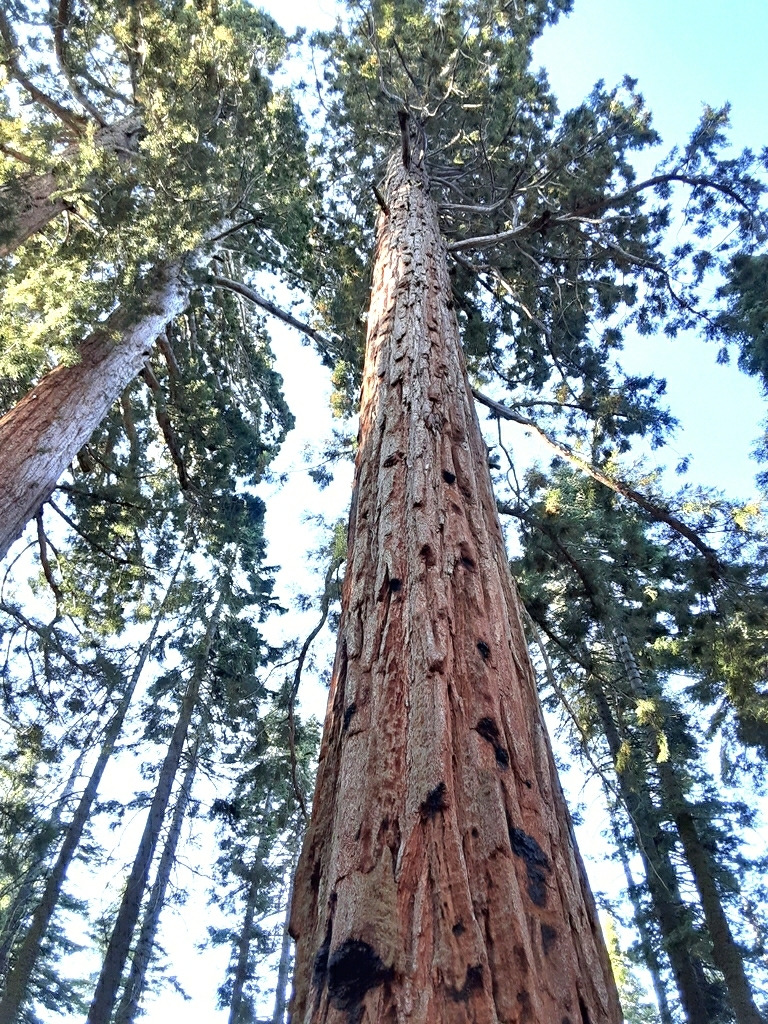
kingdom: Plantae
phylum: Tracheophyta
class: Pinopsida
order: Pinales
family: Cupressaceae
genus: Sequoiadendron
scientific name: Sequoiadendron giganteum
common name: Wellingtonia
